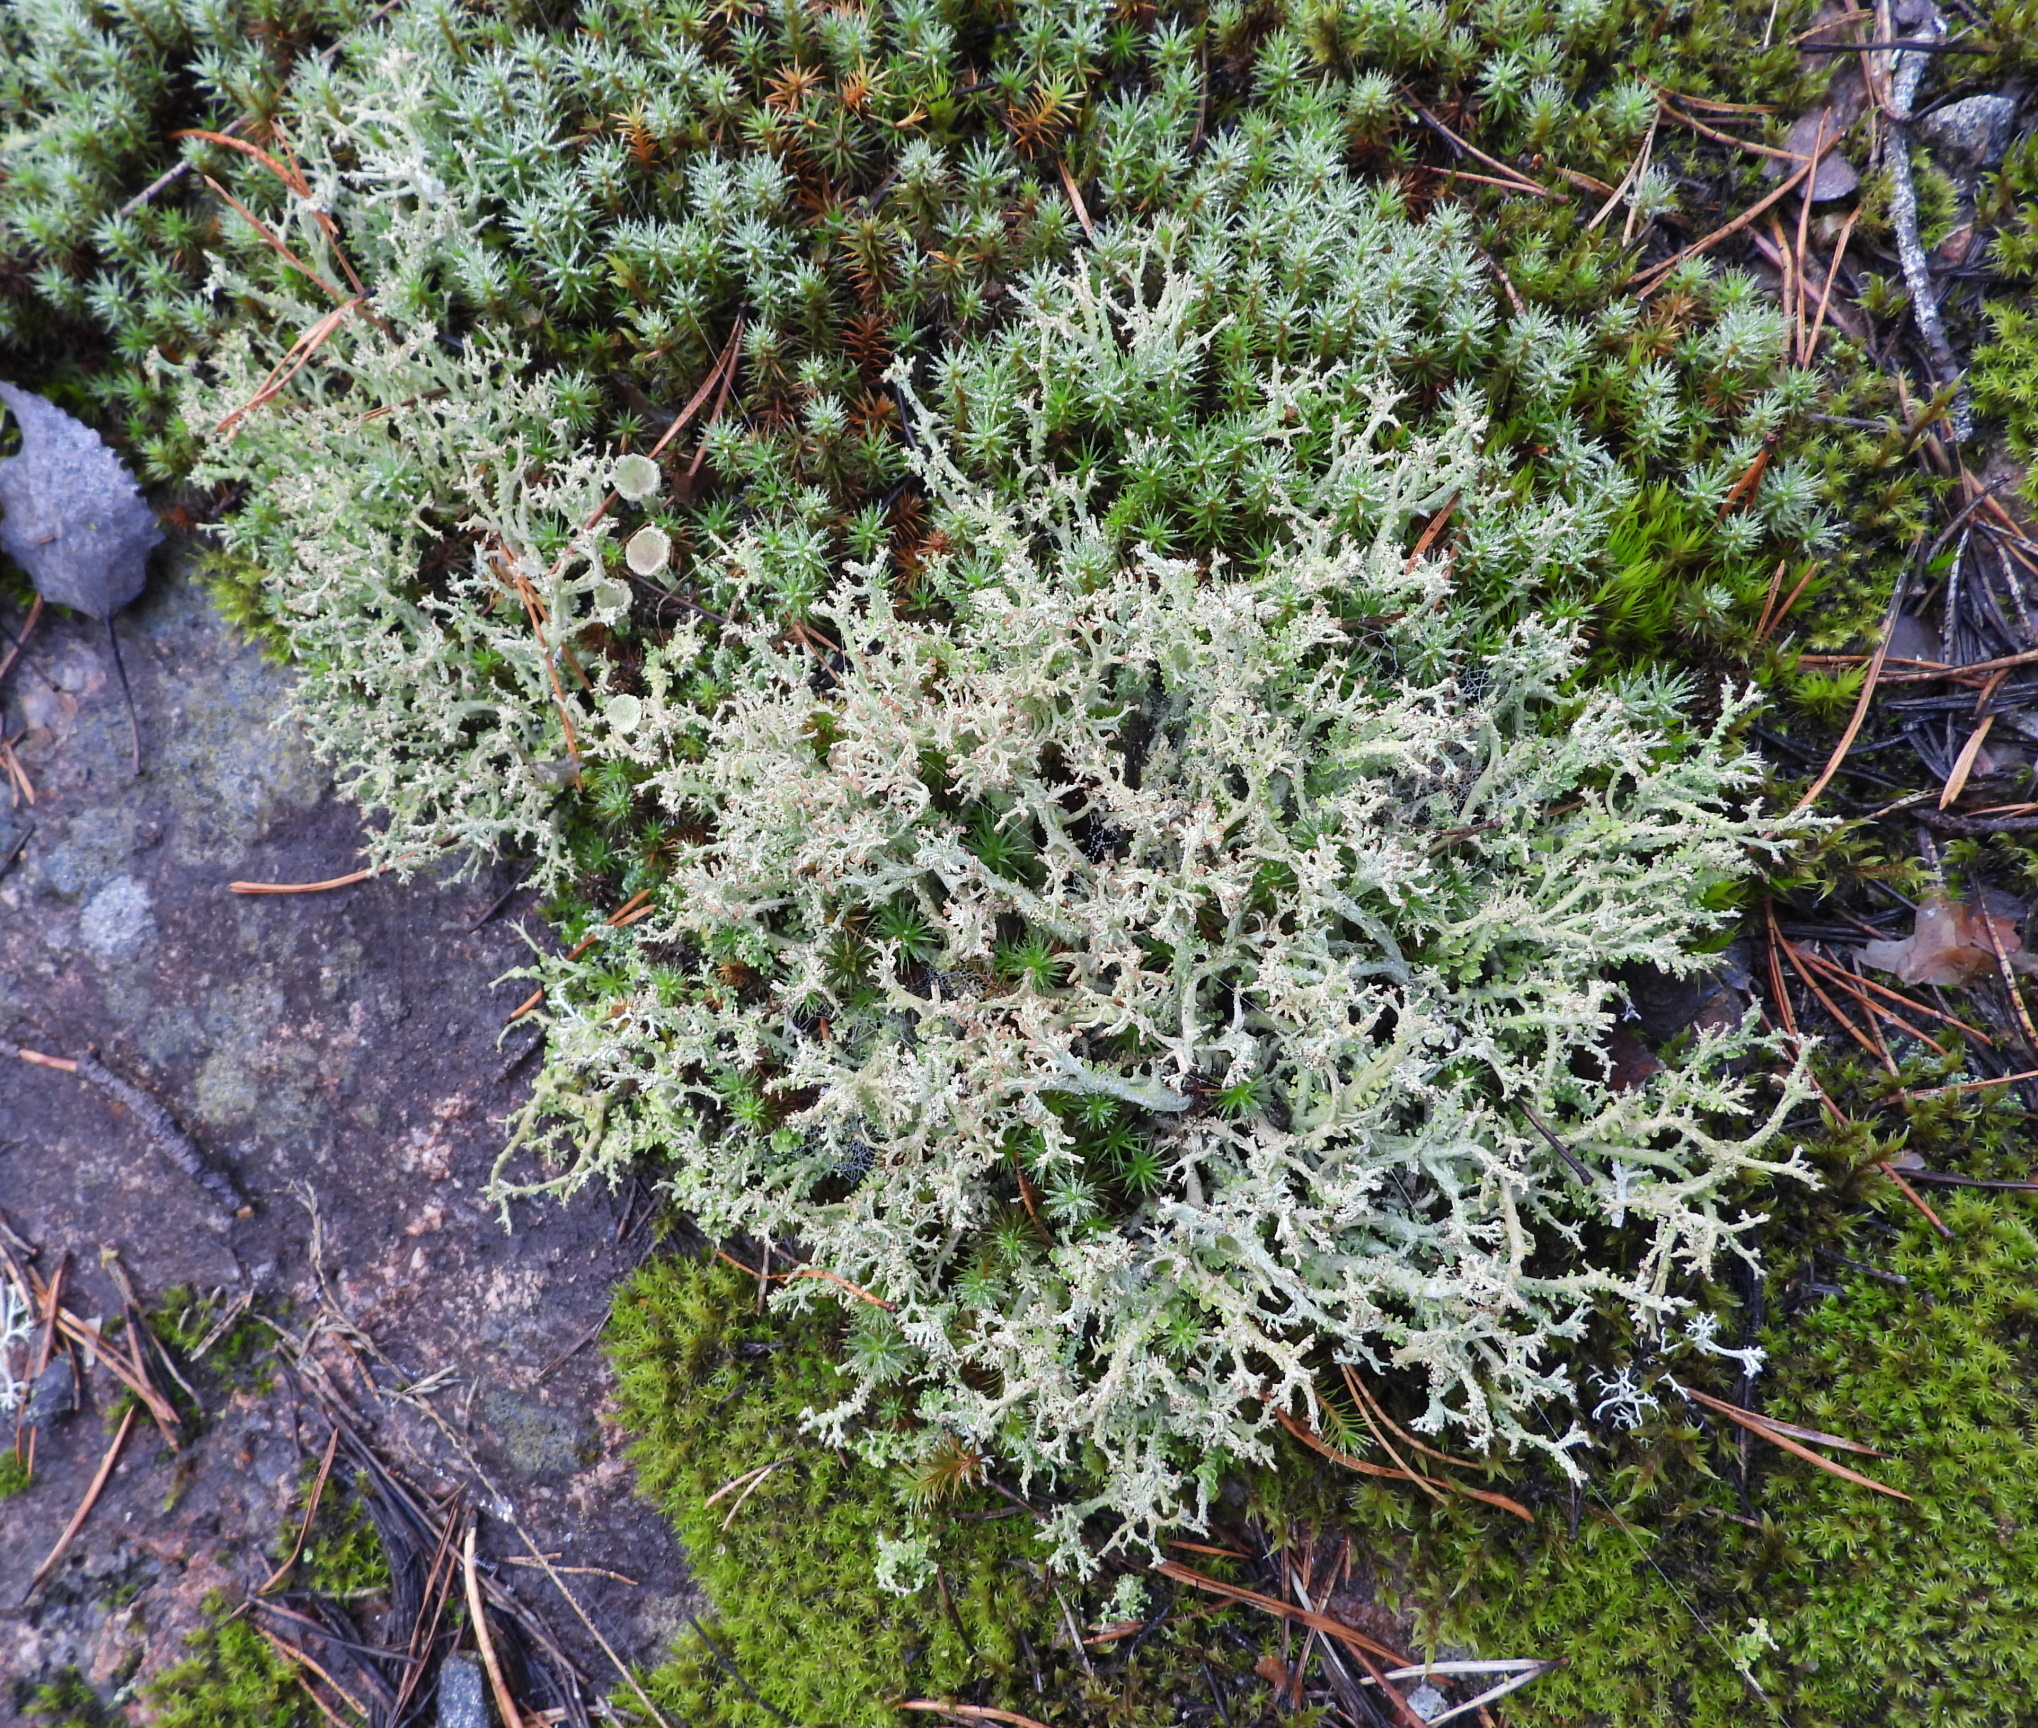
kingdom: Fungi
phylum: Ascomycota
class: Lecanoromycetes
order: Lecanorales
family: Cladoniaceae
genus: Cladonia
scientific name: Cladonia furcata
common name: Many-forked cladonia
